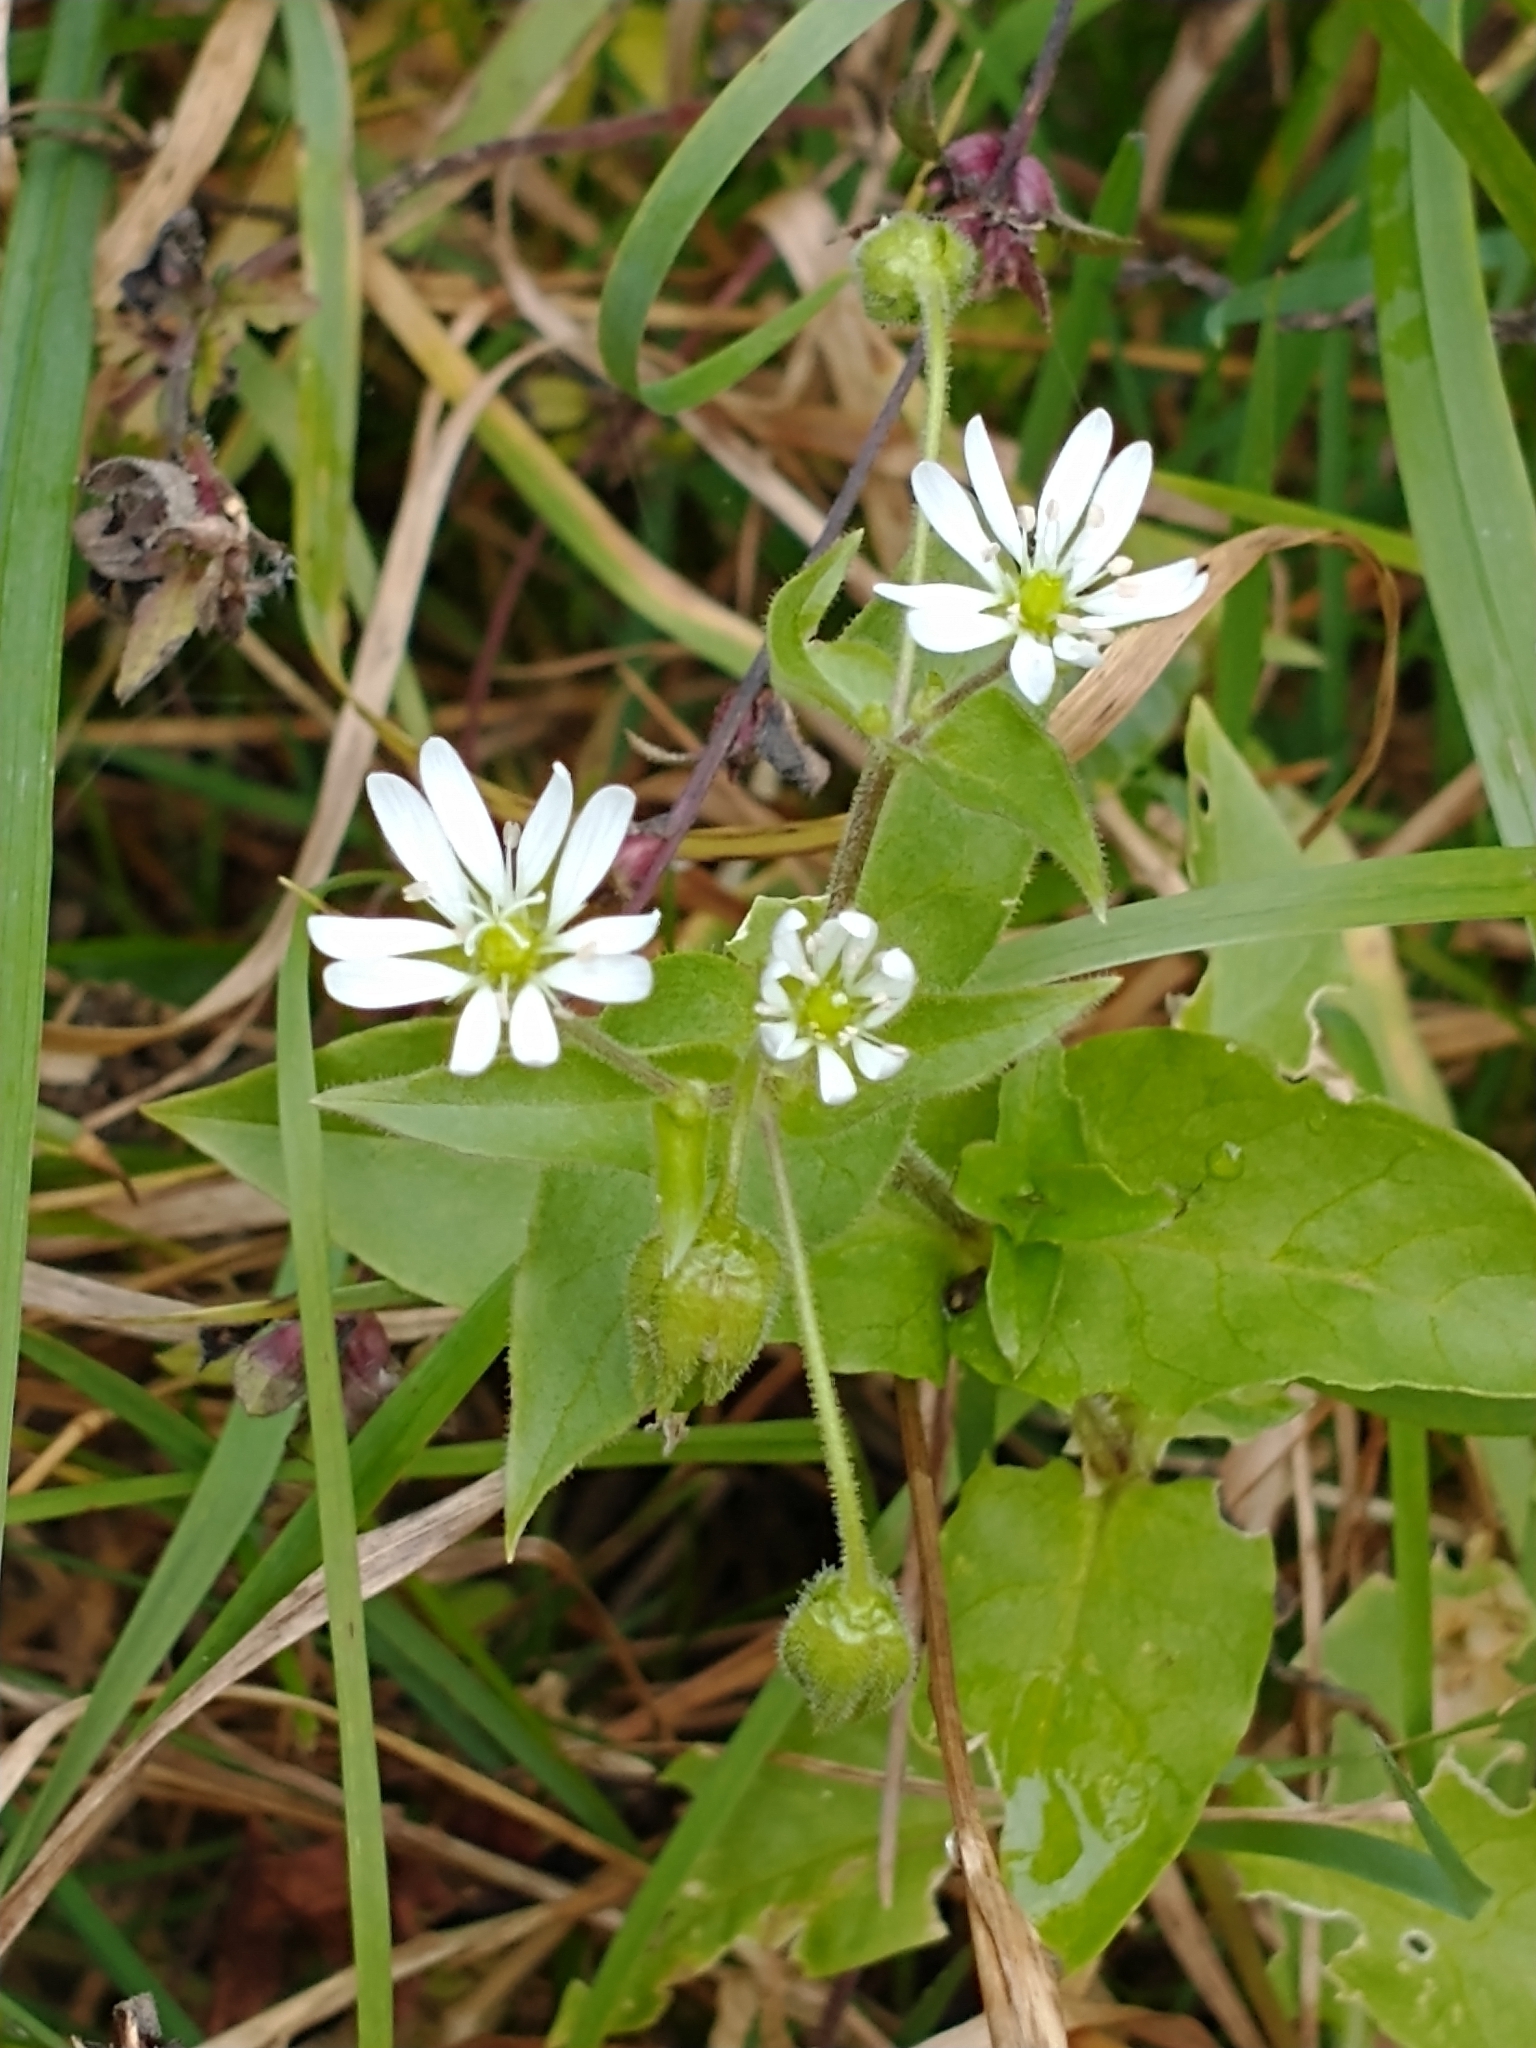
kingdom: Plantae
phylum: Tracheophyta
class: Magnoliopsida
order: Caryophyllales
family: Caryophyllaceae
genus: Stellaria
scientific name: Stellaria aquatica
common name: Water chickweed
